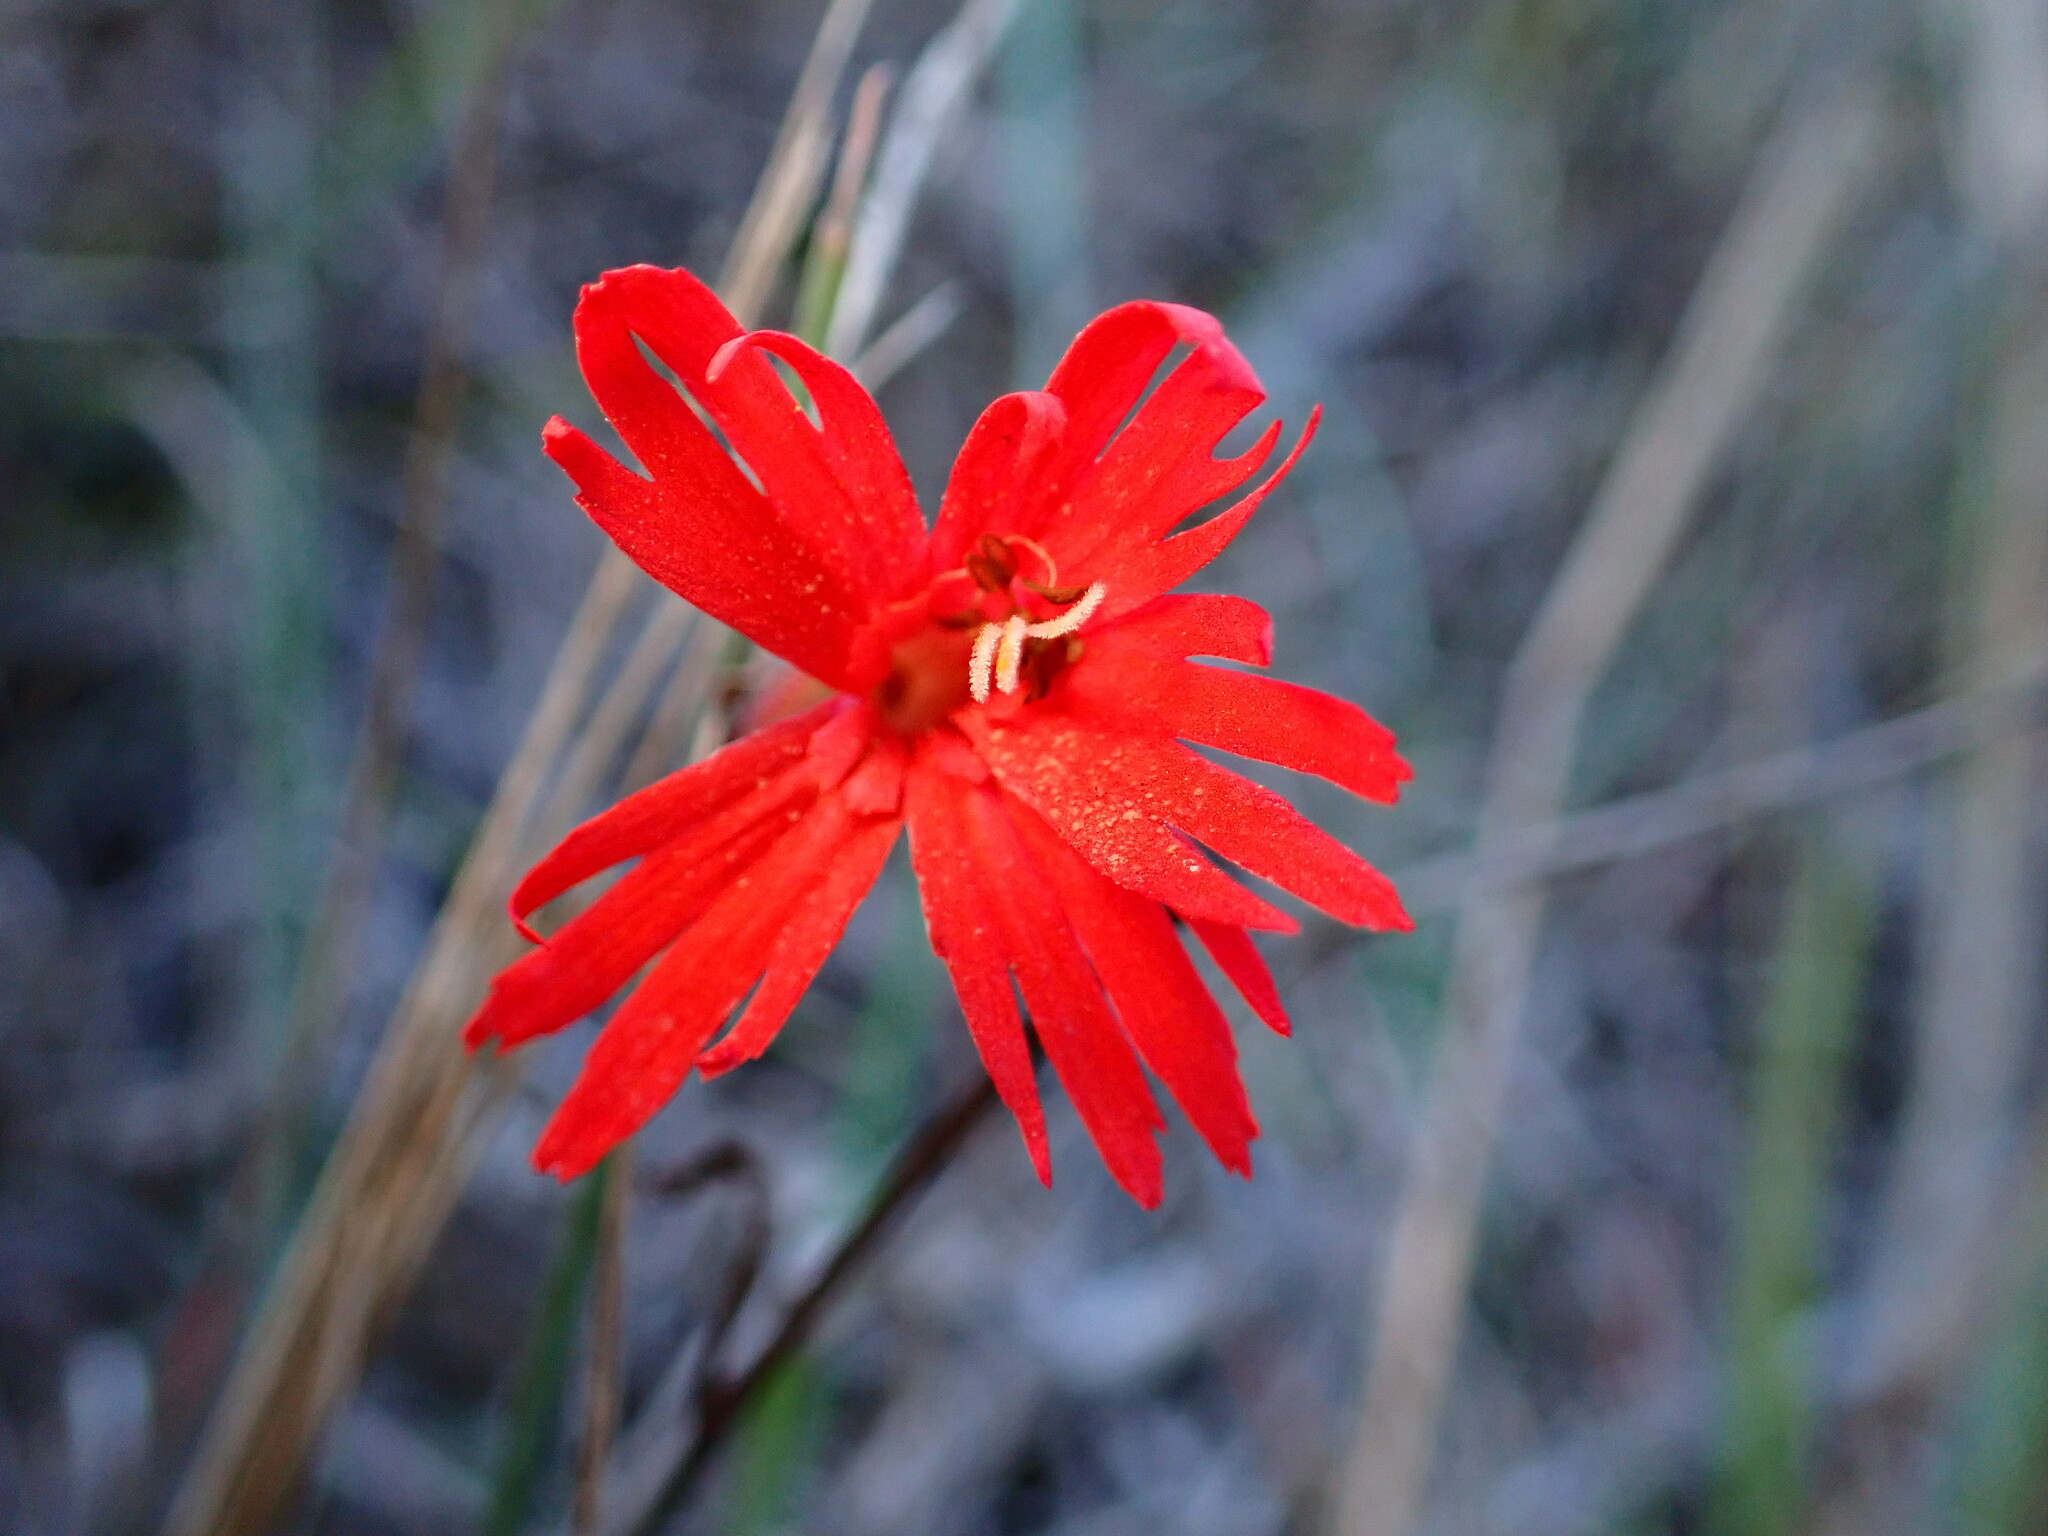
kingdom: Plantae
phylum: Tracheophyta
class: Magnoliopsida
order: Caryophyllales
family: Caryophyllaceae
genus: Silene
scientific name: Silene laciniata
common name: Indian-pink
